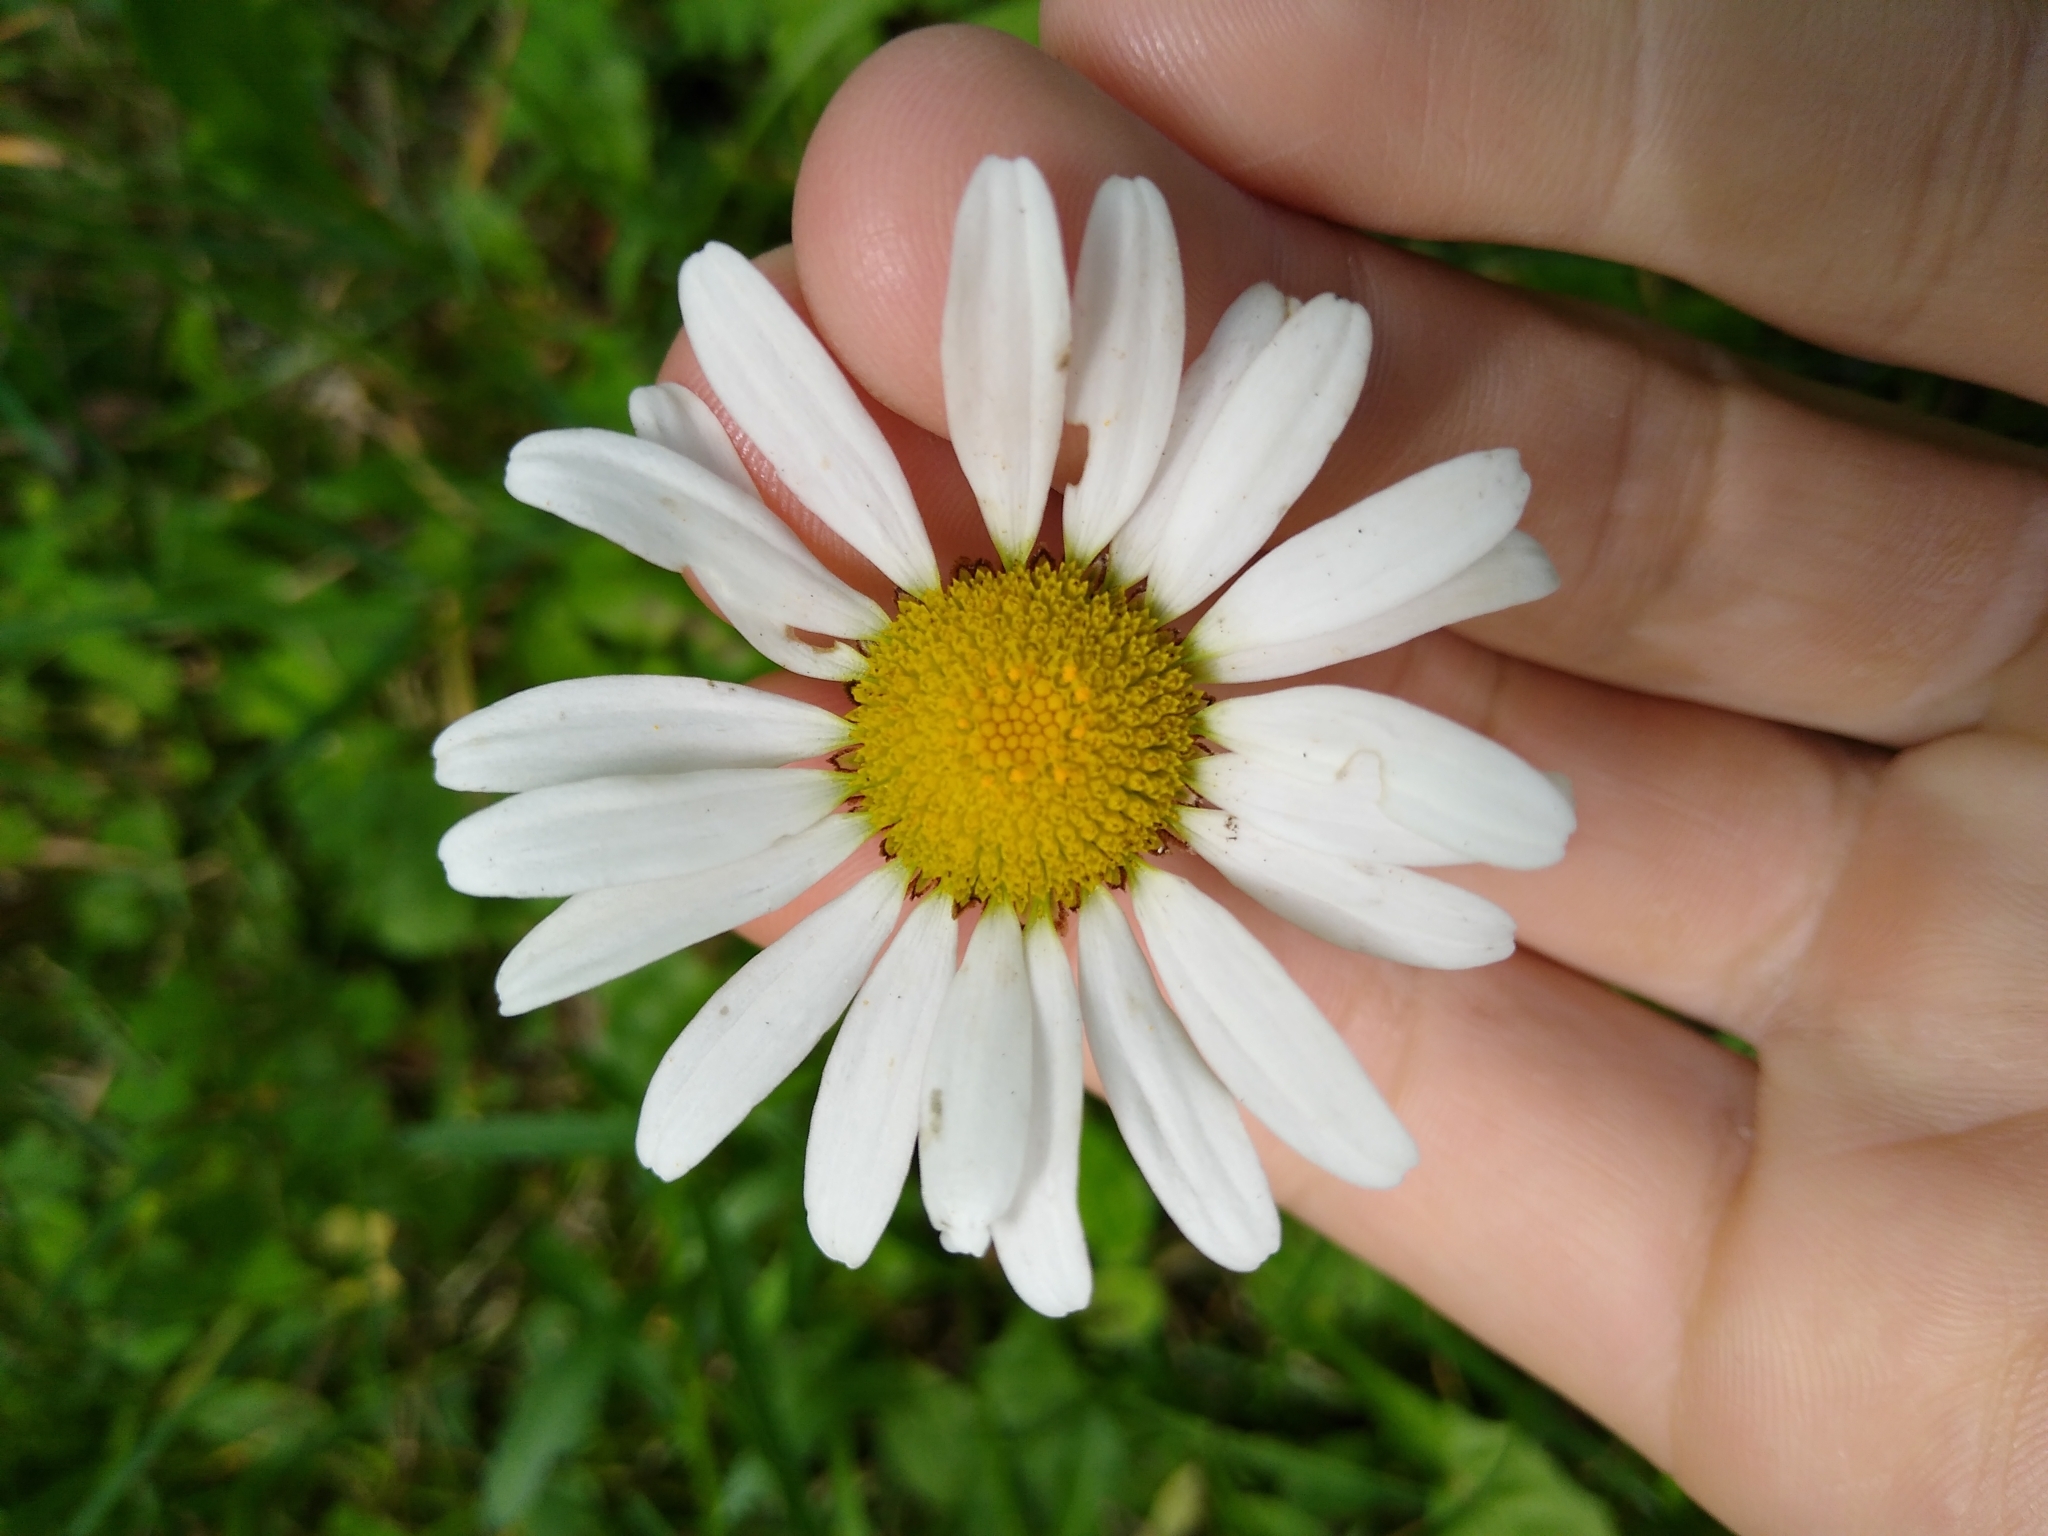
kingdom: Plantae
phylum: Tracheophyta
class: Magnoliopsida
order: Asterales
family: Asteraceae
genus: Leucanthemum
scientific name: Leucanthemum vulgare
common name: Oxeye daisy
